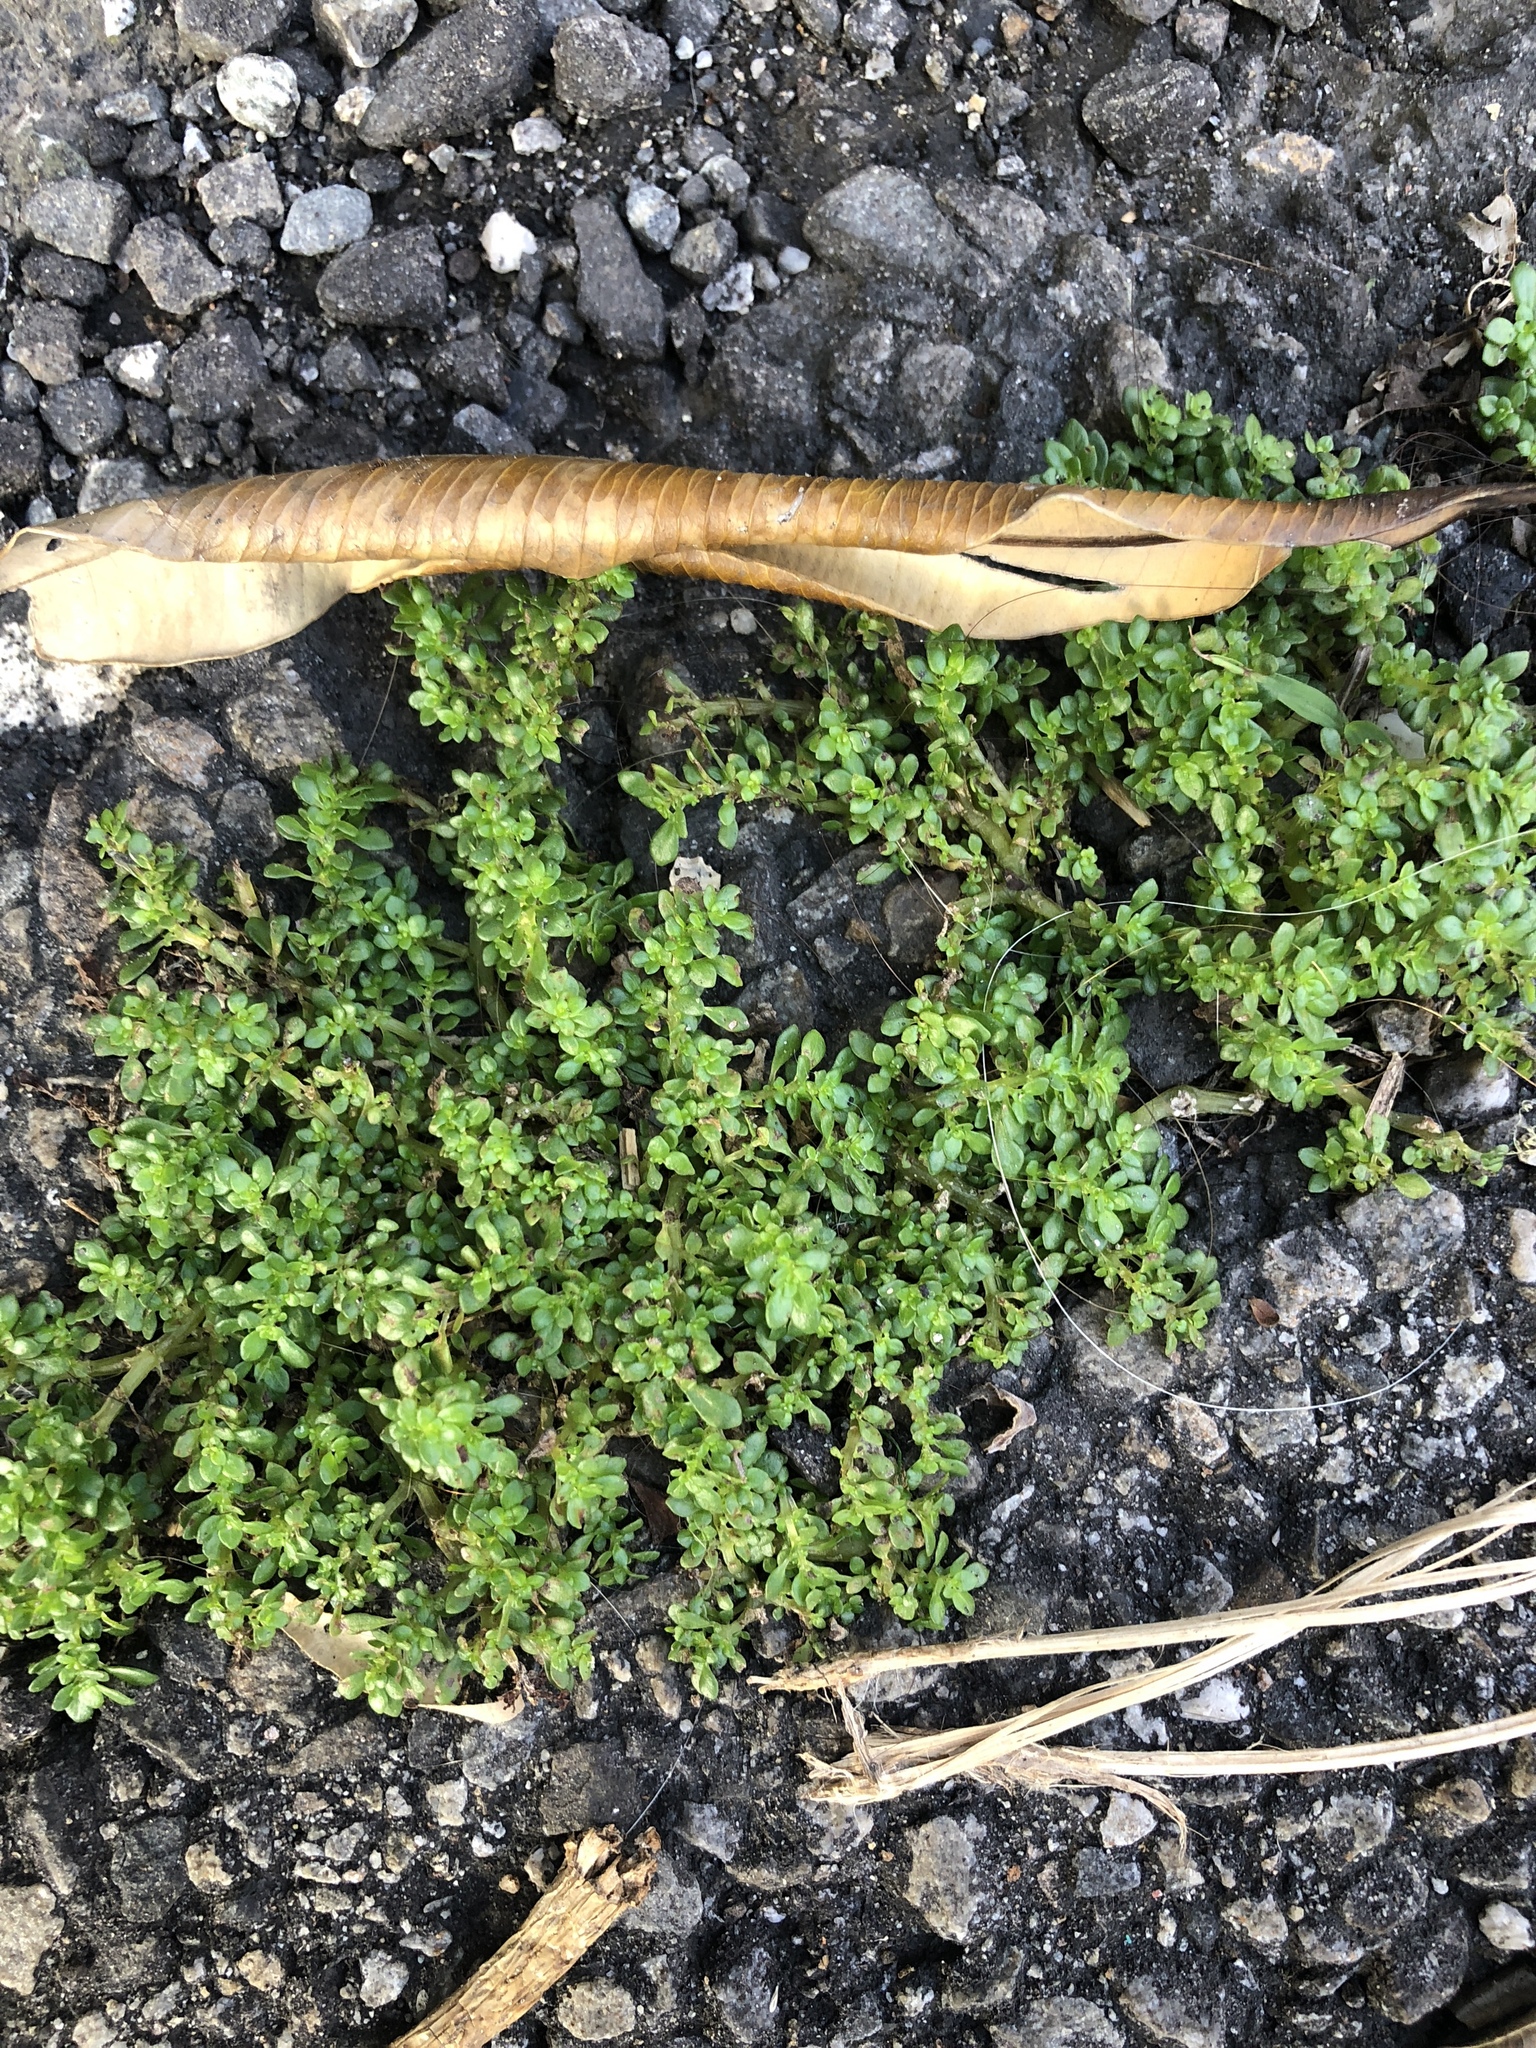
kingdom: Plantae
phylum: Tracheophyta
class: Magnoliopsida
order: Rosales
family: Urticaceae
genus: Pilea
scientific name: Pilea microphylla
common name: Artillery-plant
